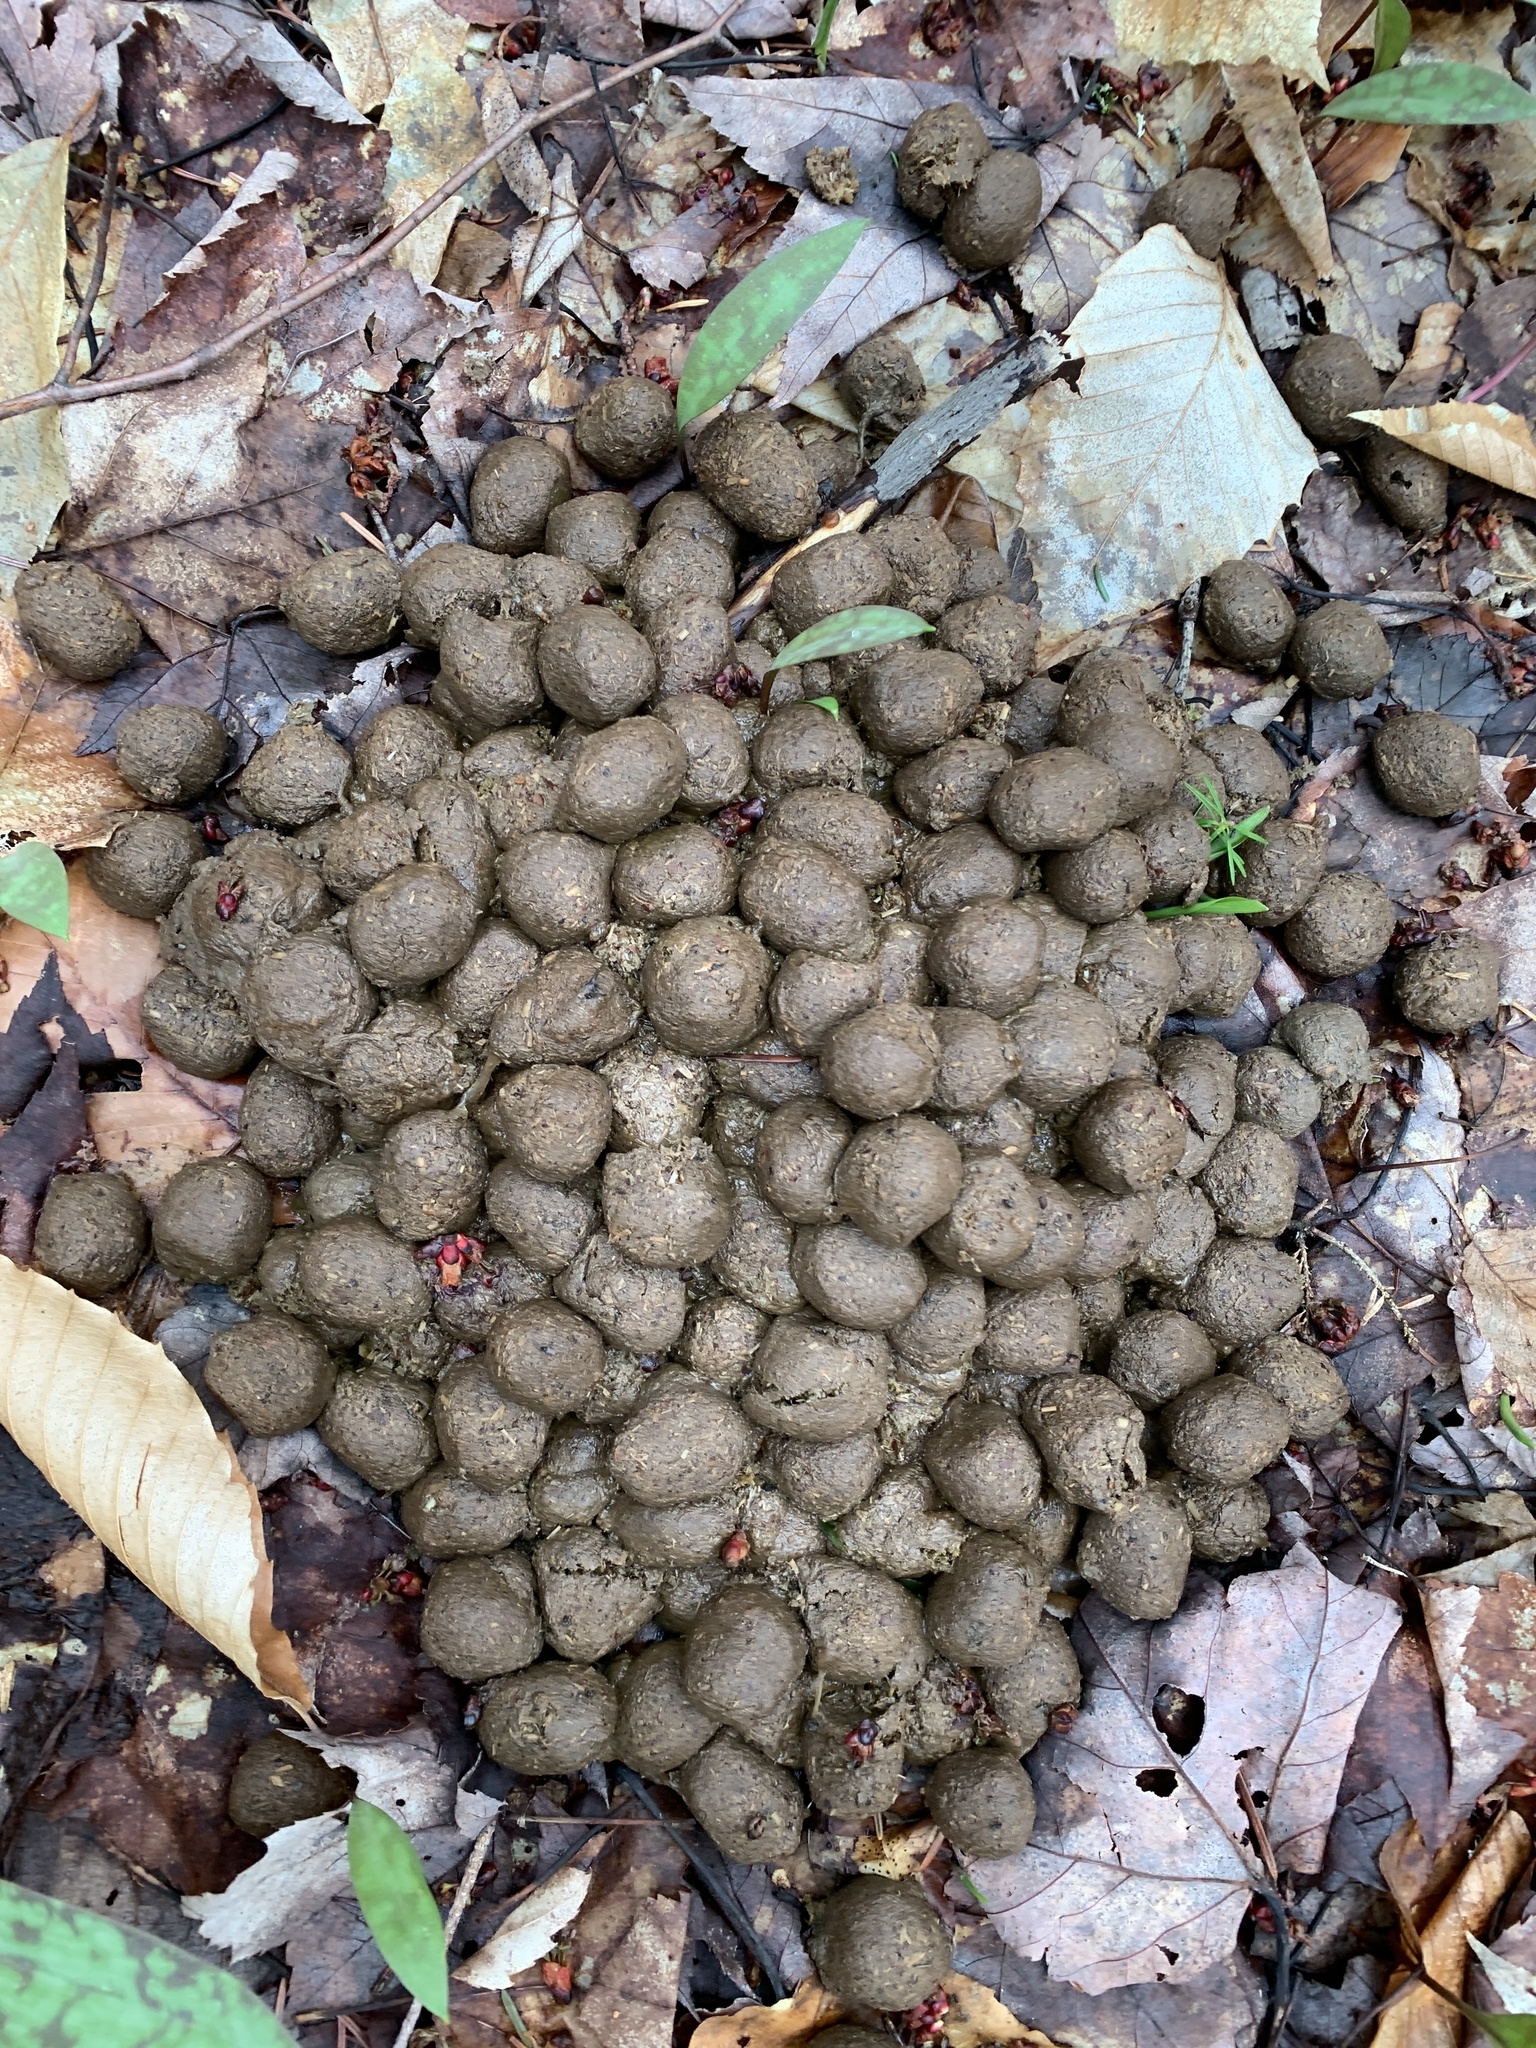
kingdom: Animalia
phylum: Chordata
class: Mammalia
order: Artiodactyla
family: Cervidae
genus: Alces
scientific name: Alces alces
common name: Moose
